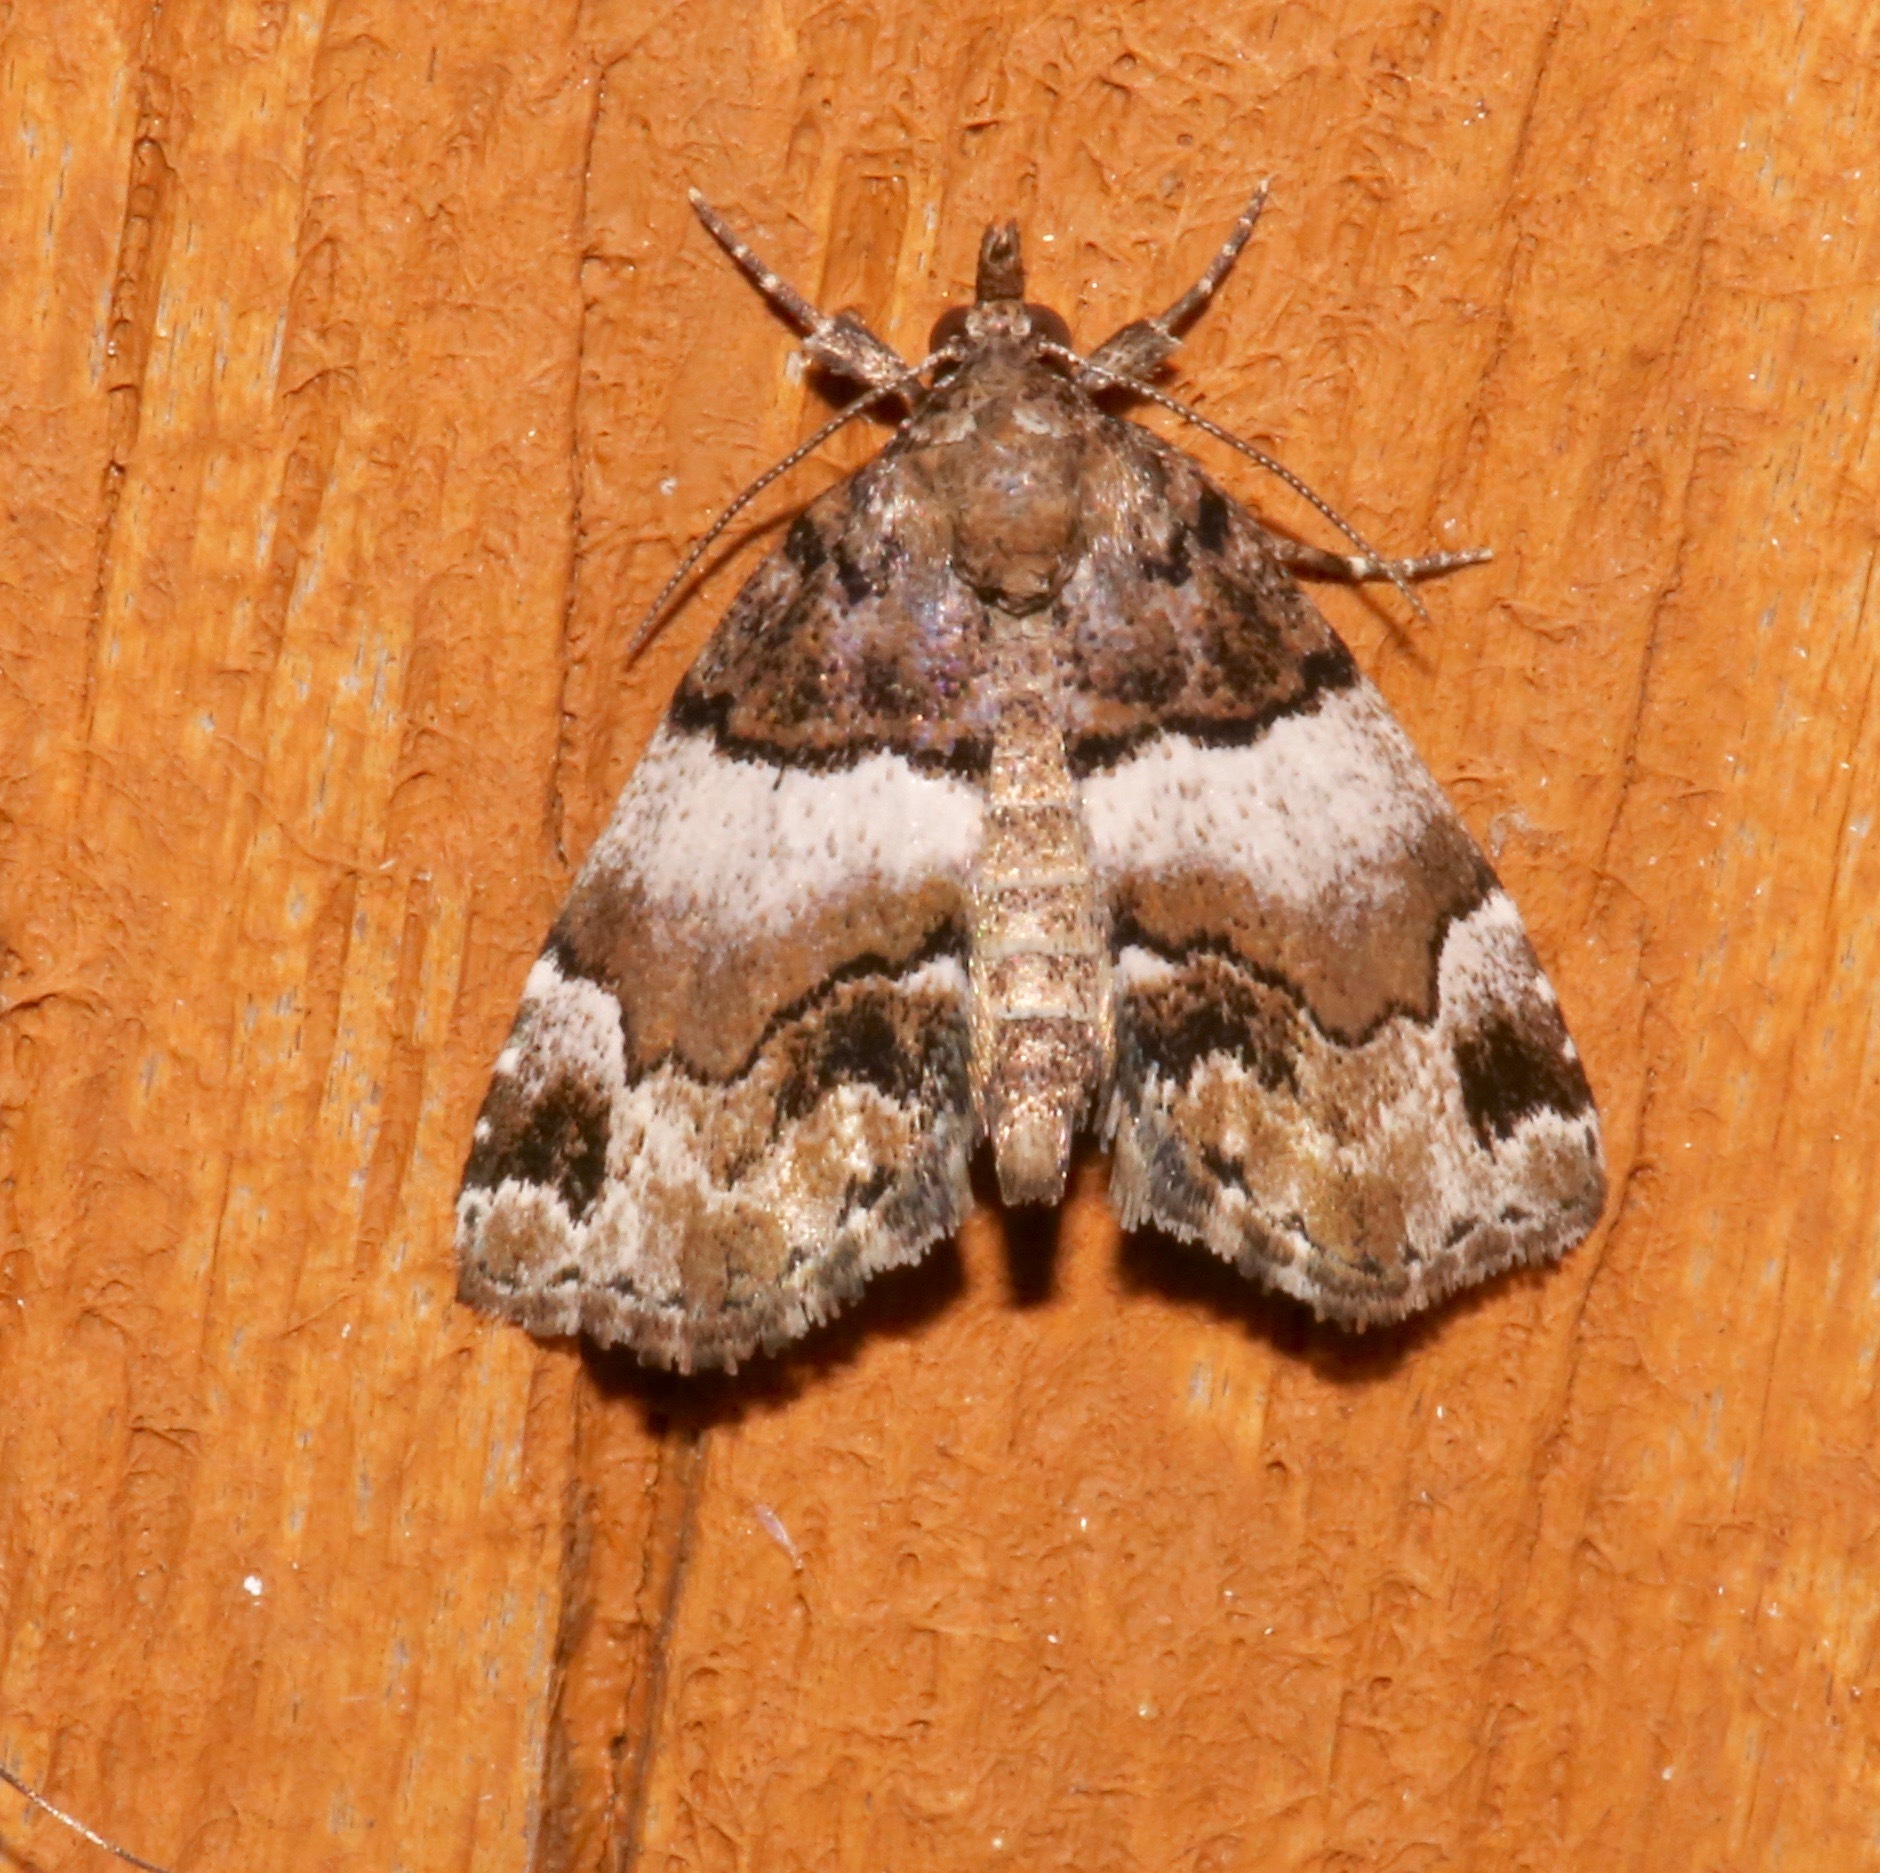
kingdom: Animalia
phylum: Arthropoda
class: Insecta
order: Lepidoptera
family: Erebidae
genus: Cutina
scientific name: Cutina distincta
